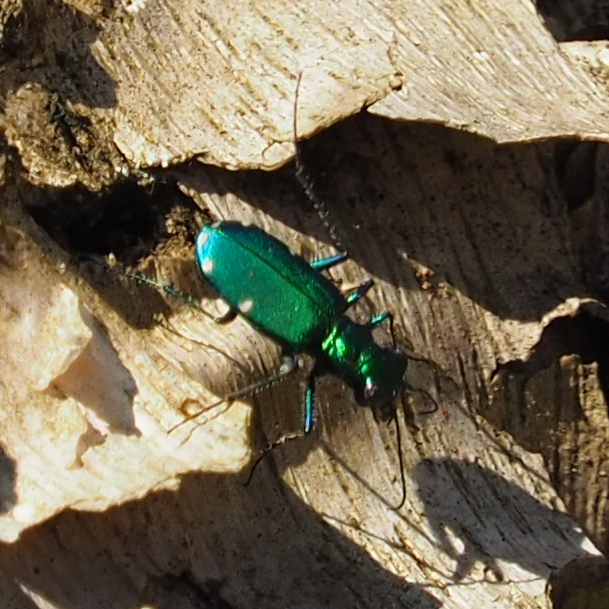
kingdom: Animalia
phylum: Arthropoda
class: Insecta
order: Coleoptera
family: Carabidae
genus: Cicindela
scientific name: Cicindela sexguttata
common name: Six-spotted tiger beetle
